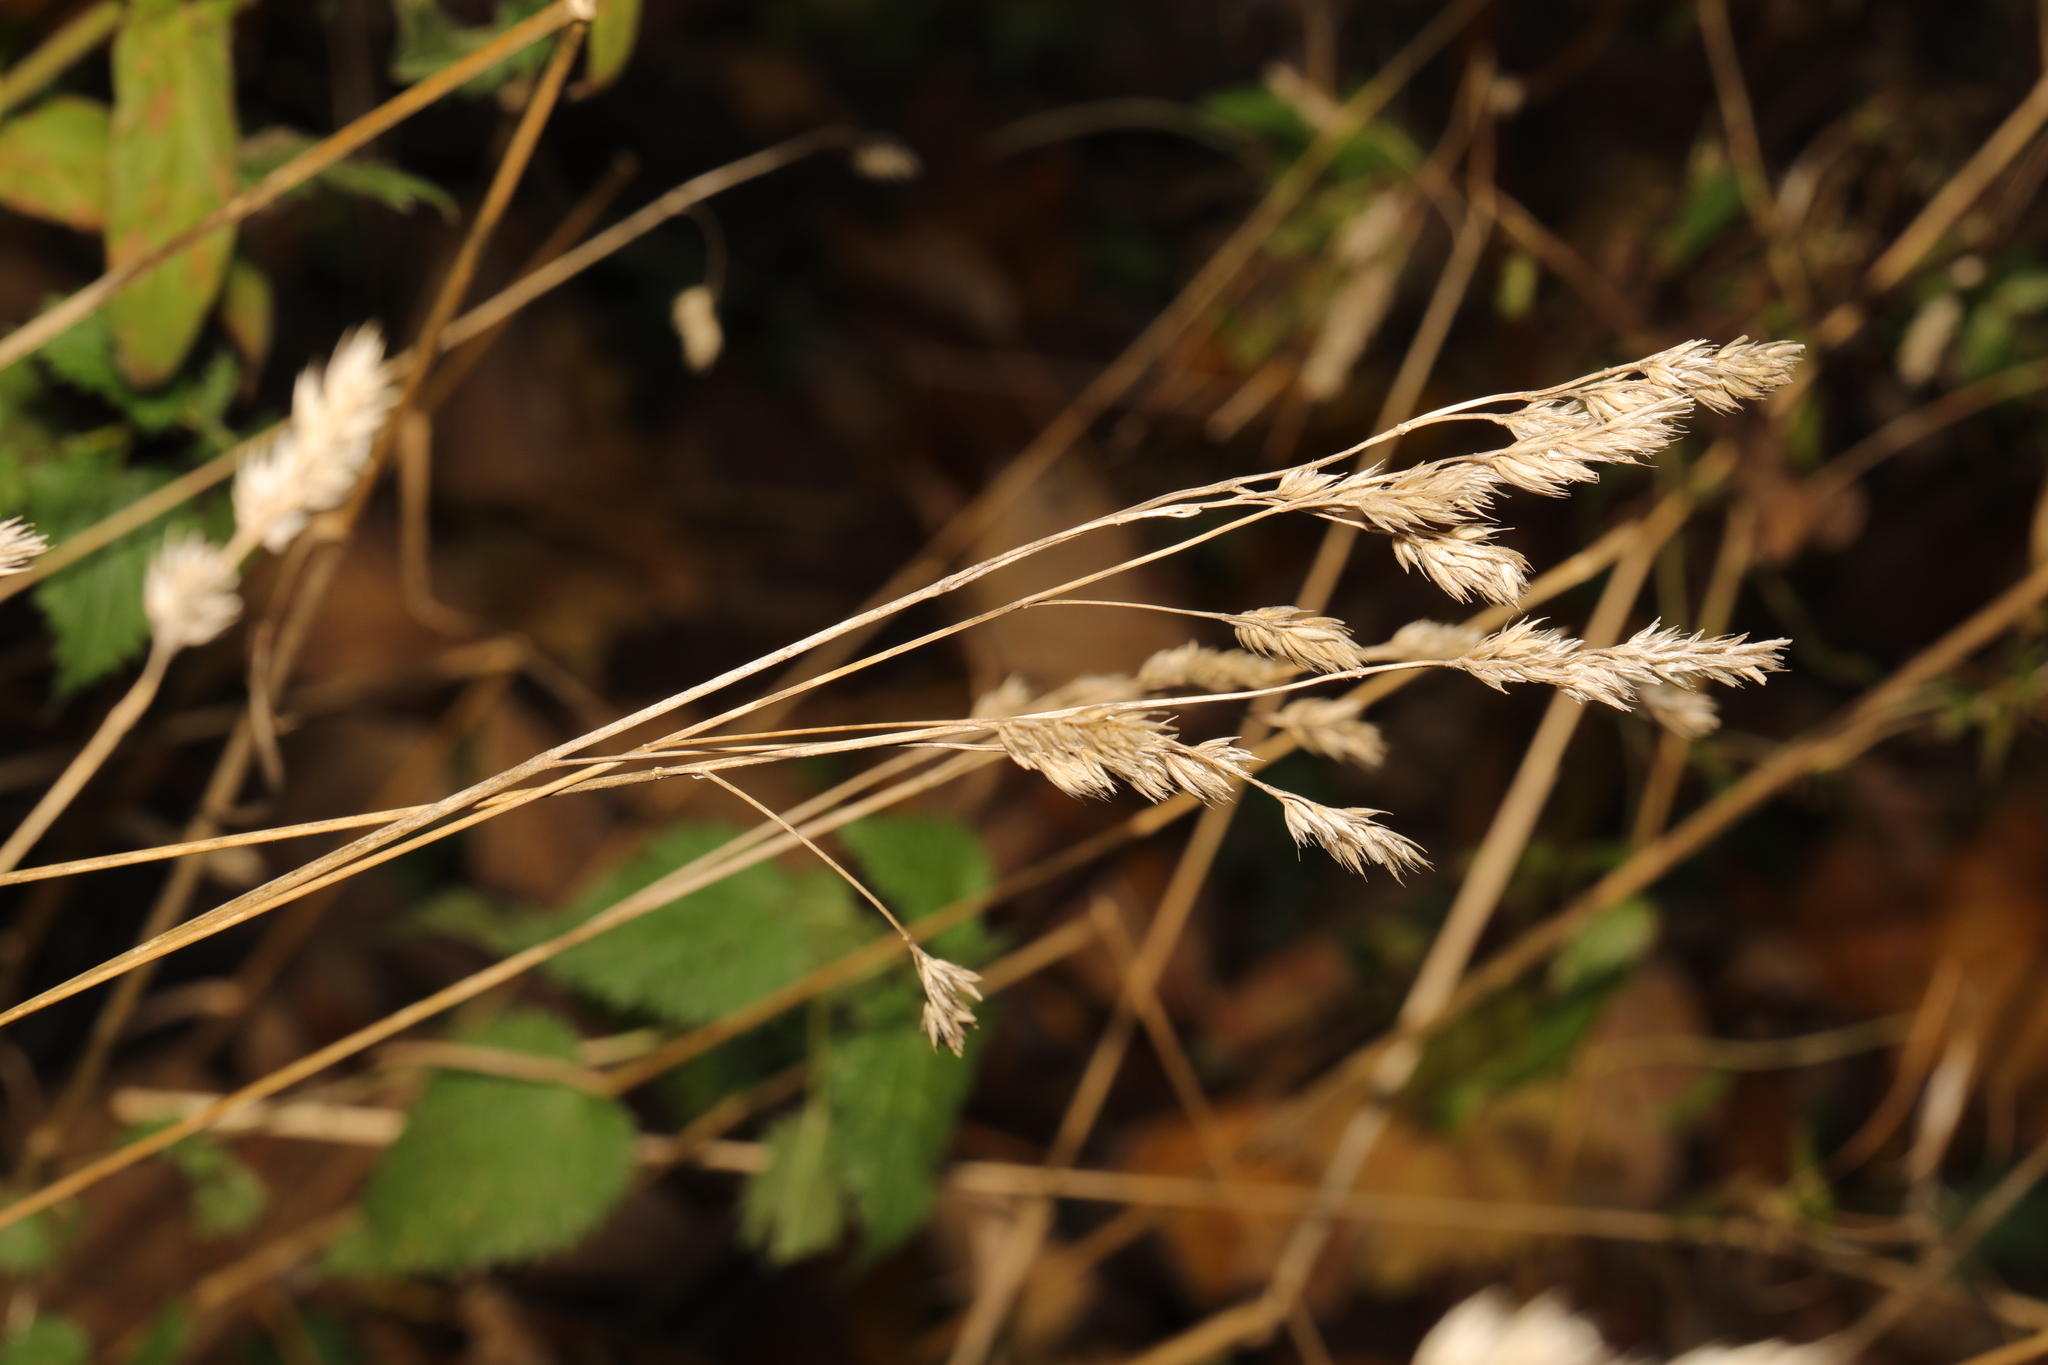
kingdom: Plantae
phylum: Tracheophyta
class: Liliopsida
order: Poales
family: Poaceae
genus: Dactylis
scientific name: Dactylis glomerata
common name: Orchardgrass
